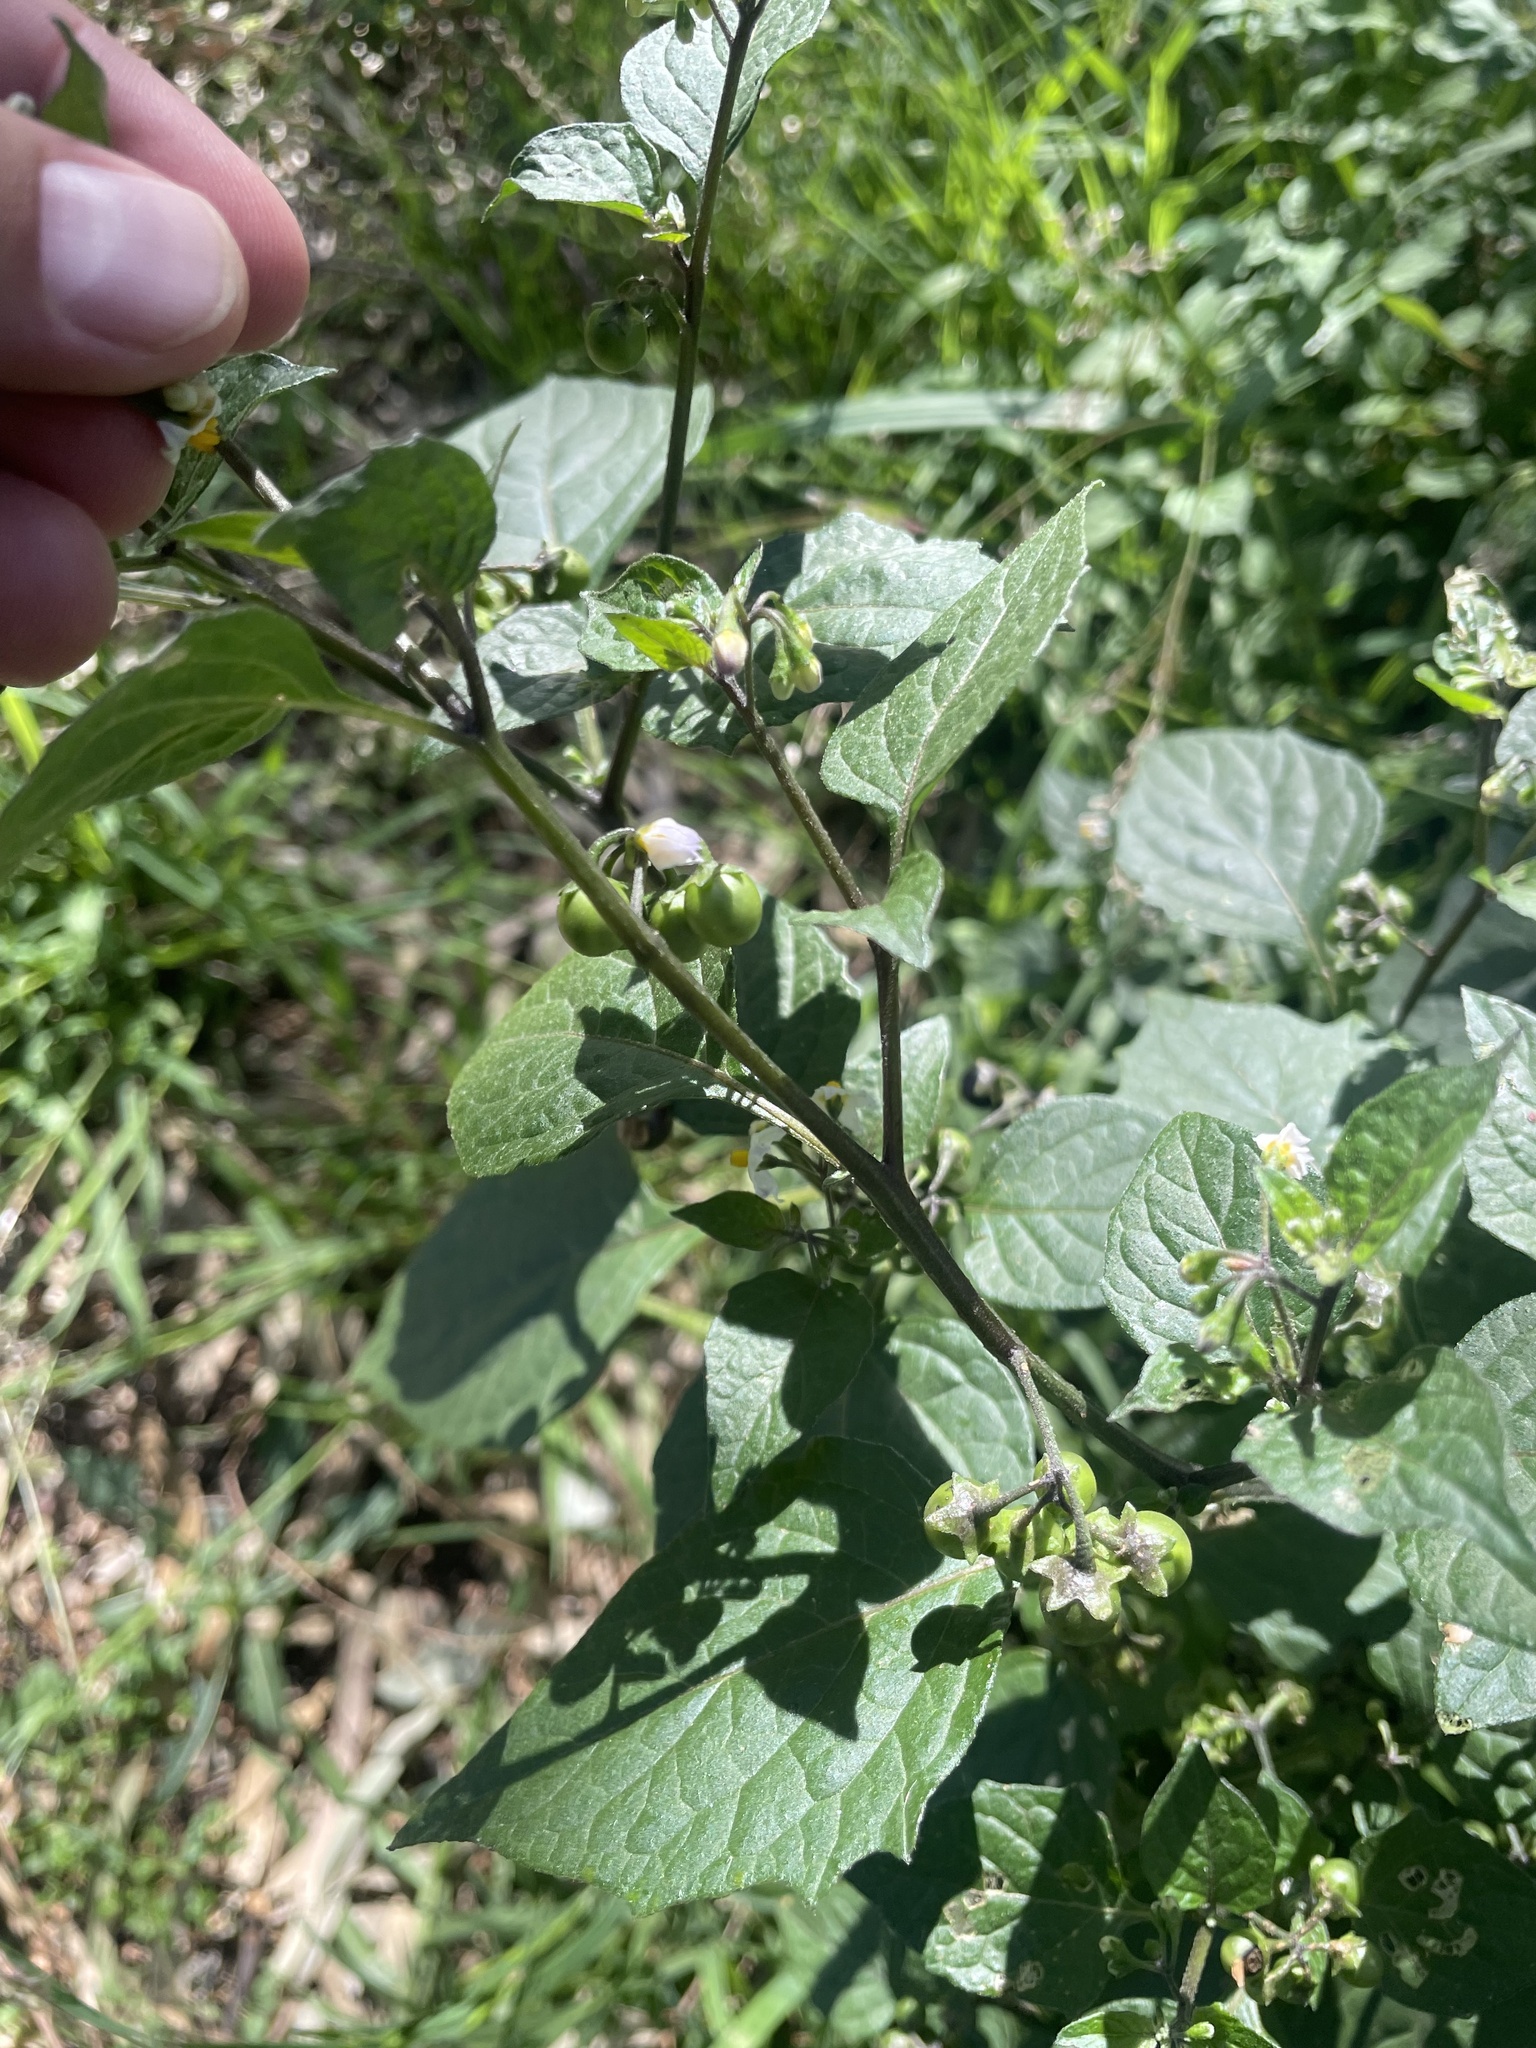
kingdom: Plantae
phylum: Tracheophyta
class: Magnoliopsida
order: Solanales
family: Solanaceae
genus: Solanum
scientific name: Solanum nigrum
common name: Black nightshade
